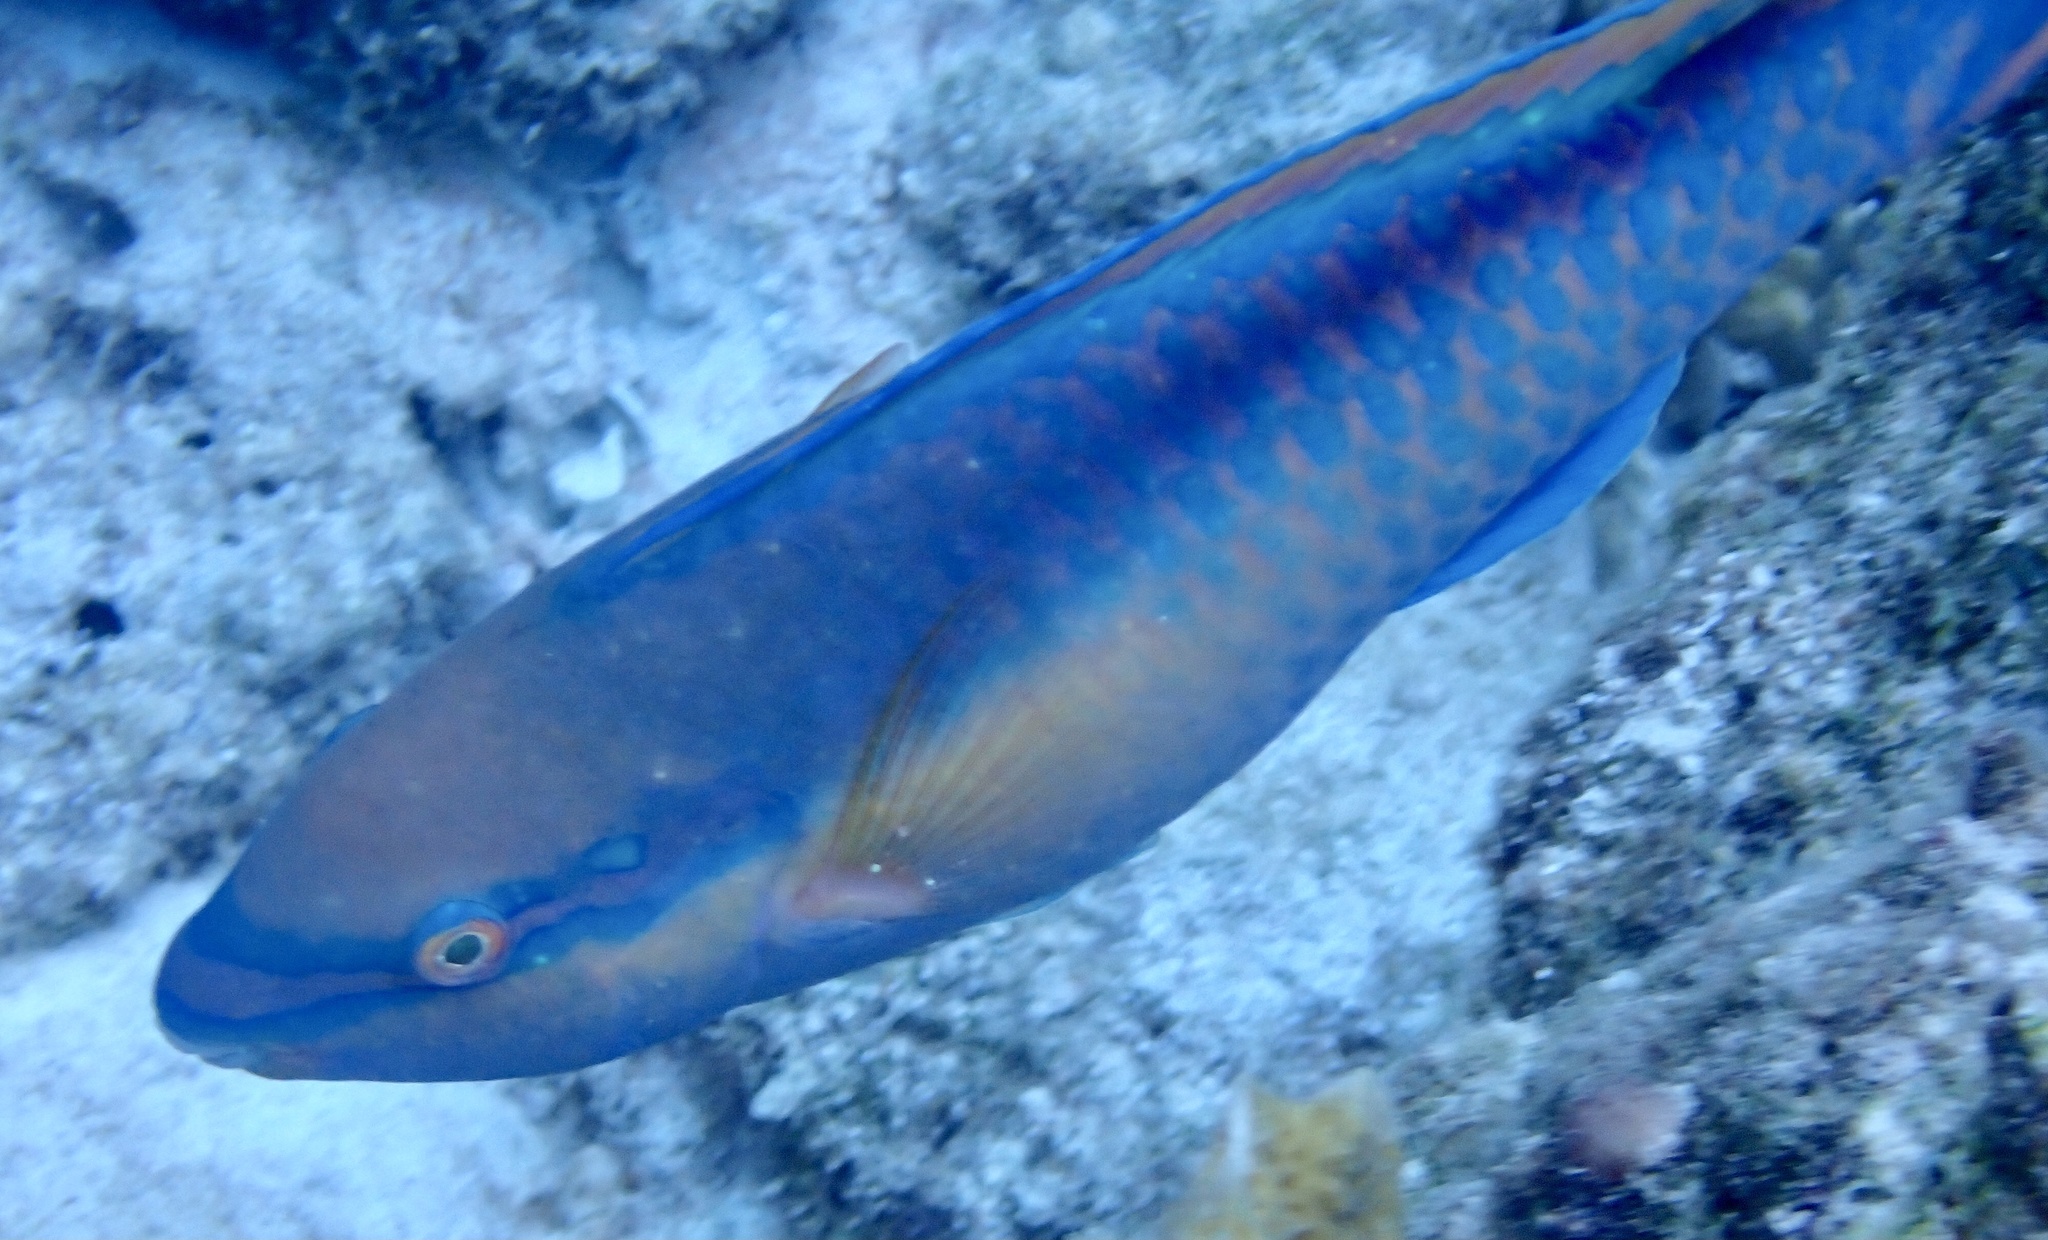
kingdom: Animalia
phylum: Chordata
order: Perciformes
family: Scaridae
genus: Scarus
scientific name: Scarus taeniopterus
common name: Princess parrotfish
